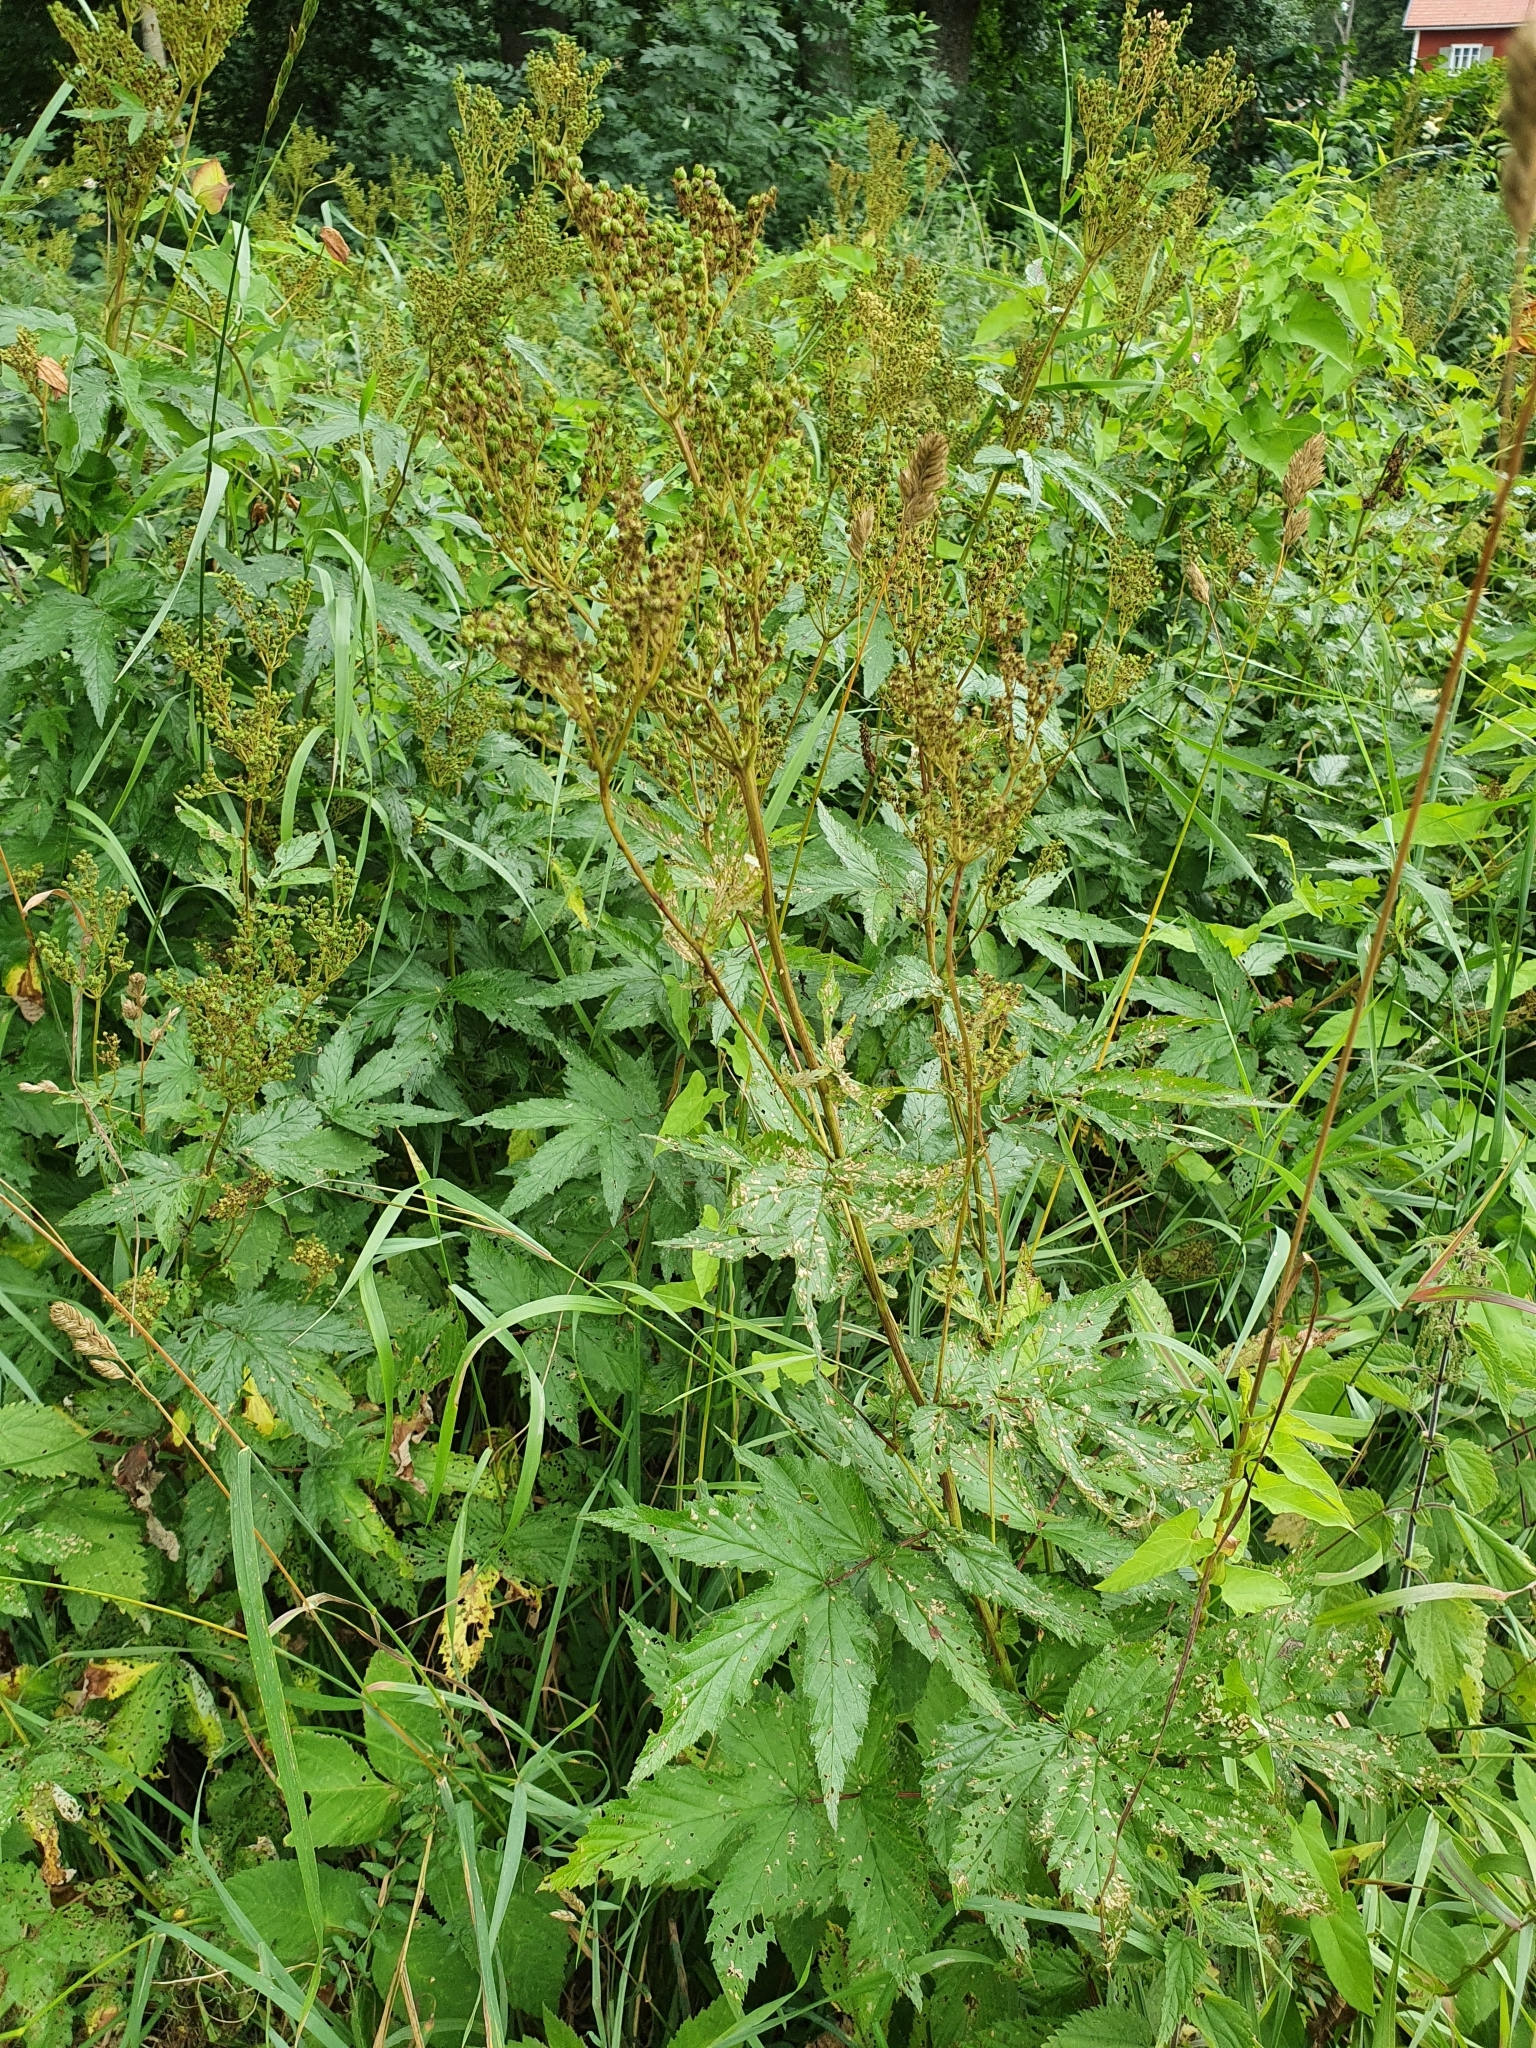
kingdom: Plantae
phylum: Tracheophyta
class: Magnoliopsida
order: Rosales
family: Rosaceae
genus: Filipendula
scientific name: Filipendula ulmaria
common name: Meadowsweet
